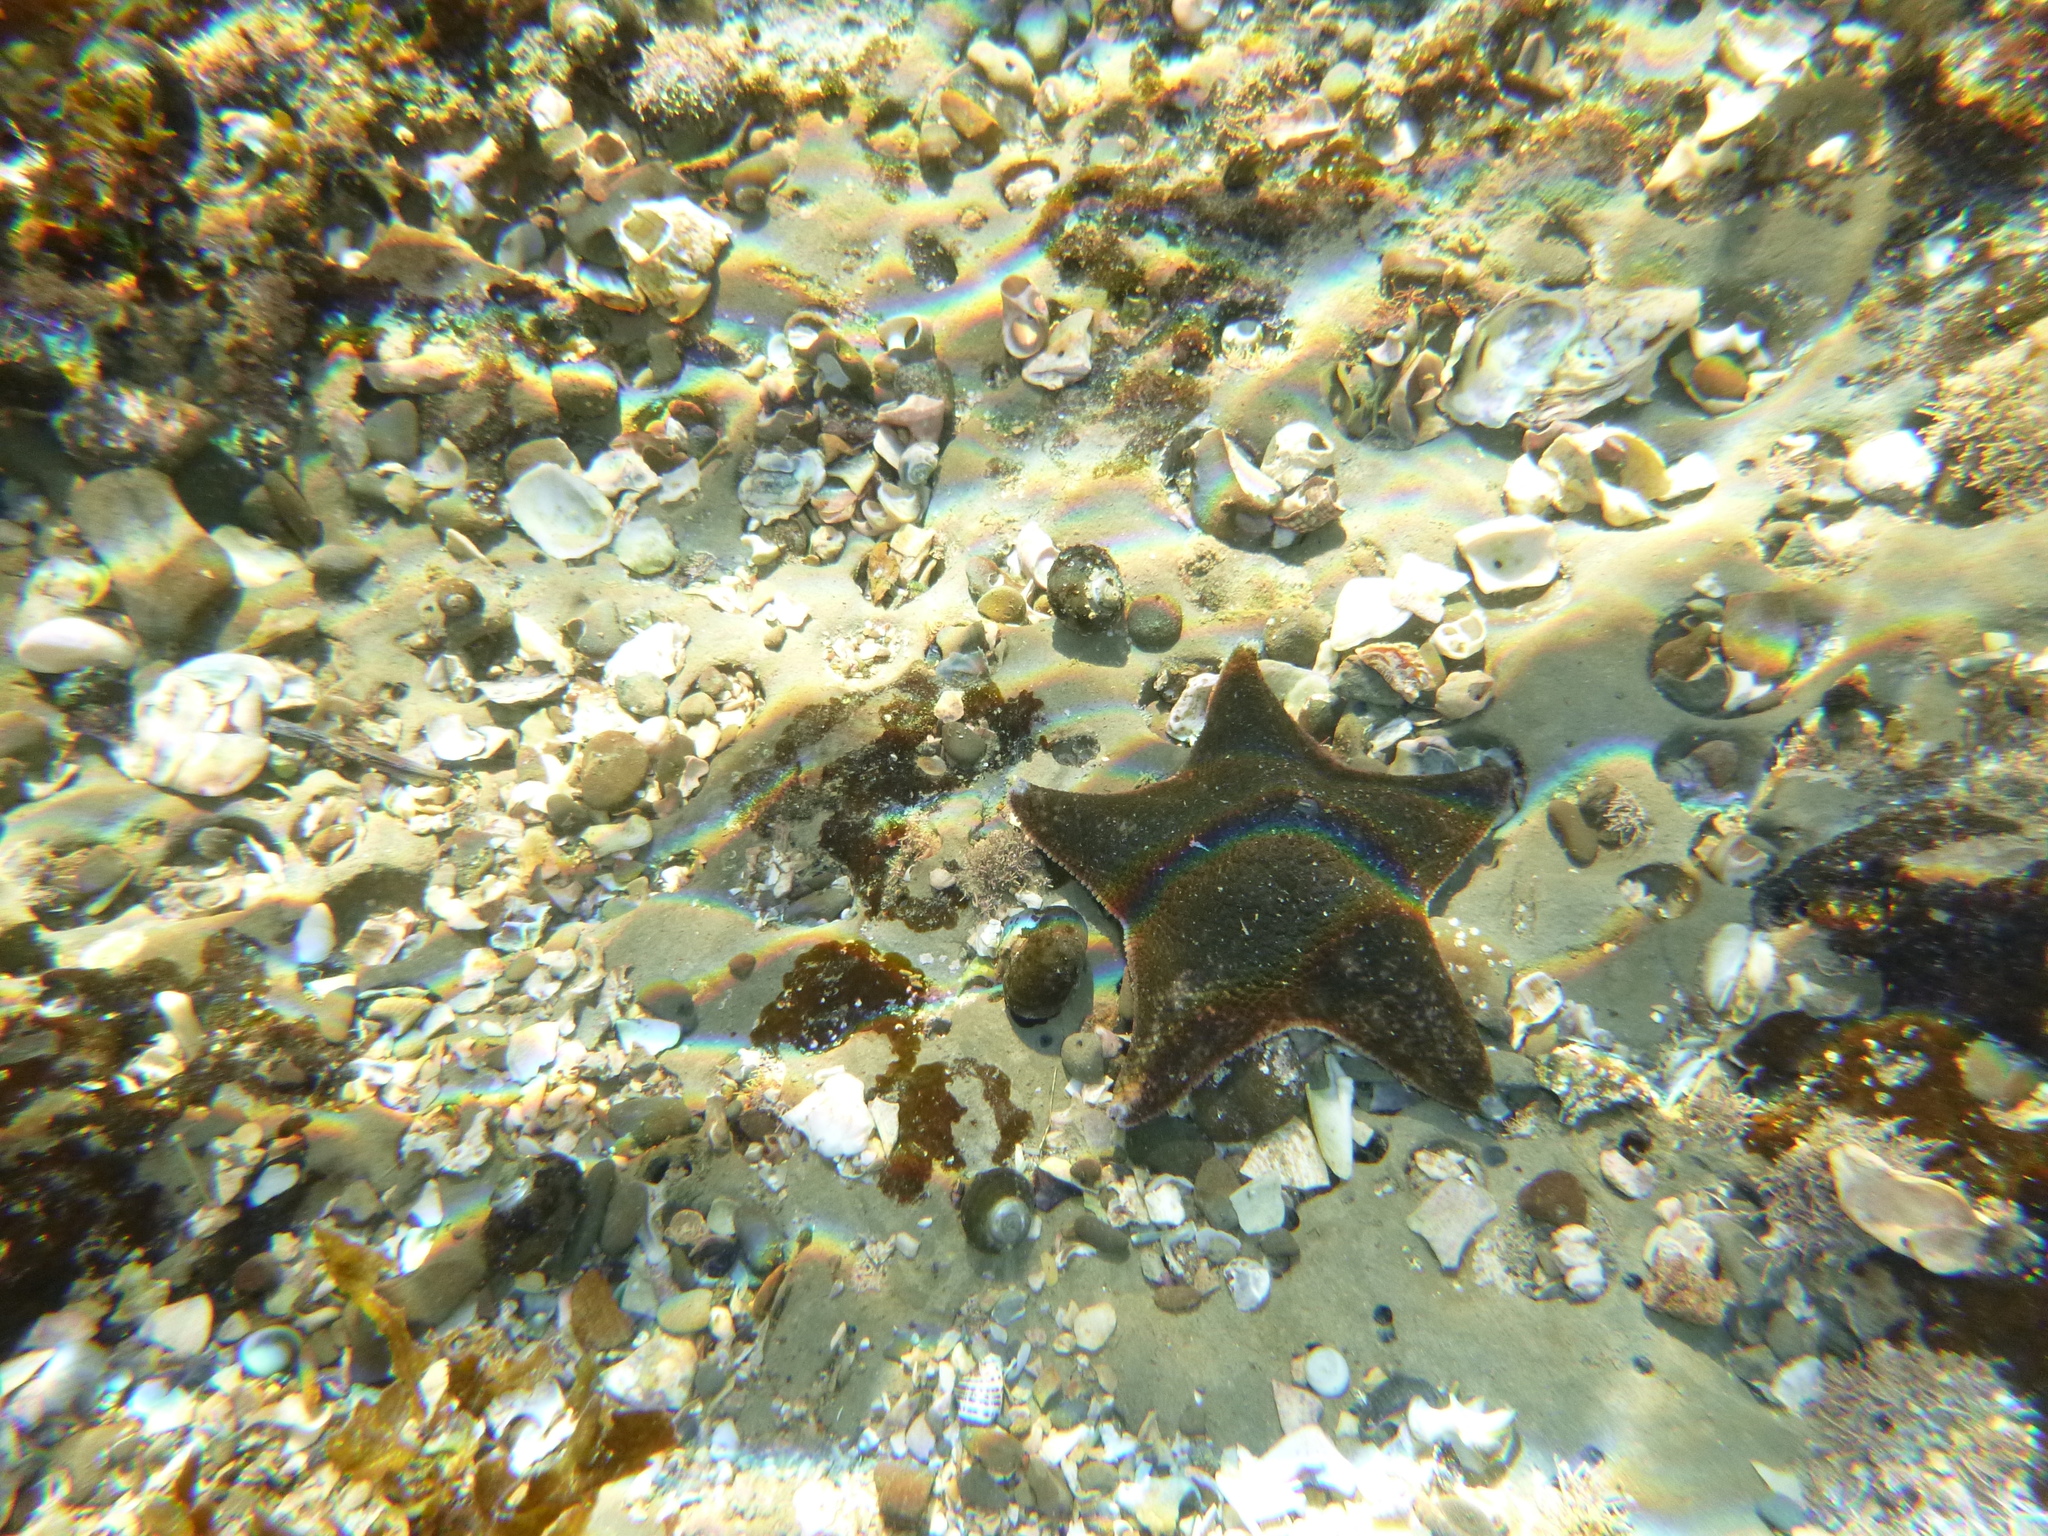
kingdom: Animalia
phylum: Echinodermata
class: Asteroidea
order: Valvatida
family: Asterinidae
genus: Patiriella
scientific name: Patiriella regularis
